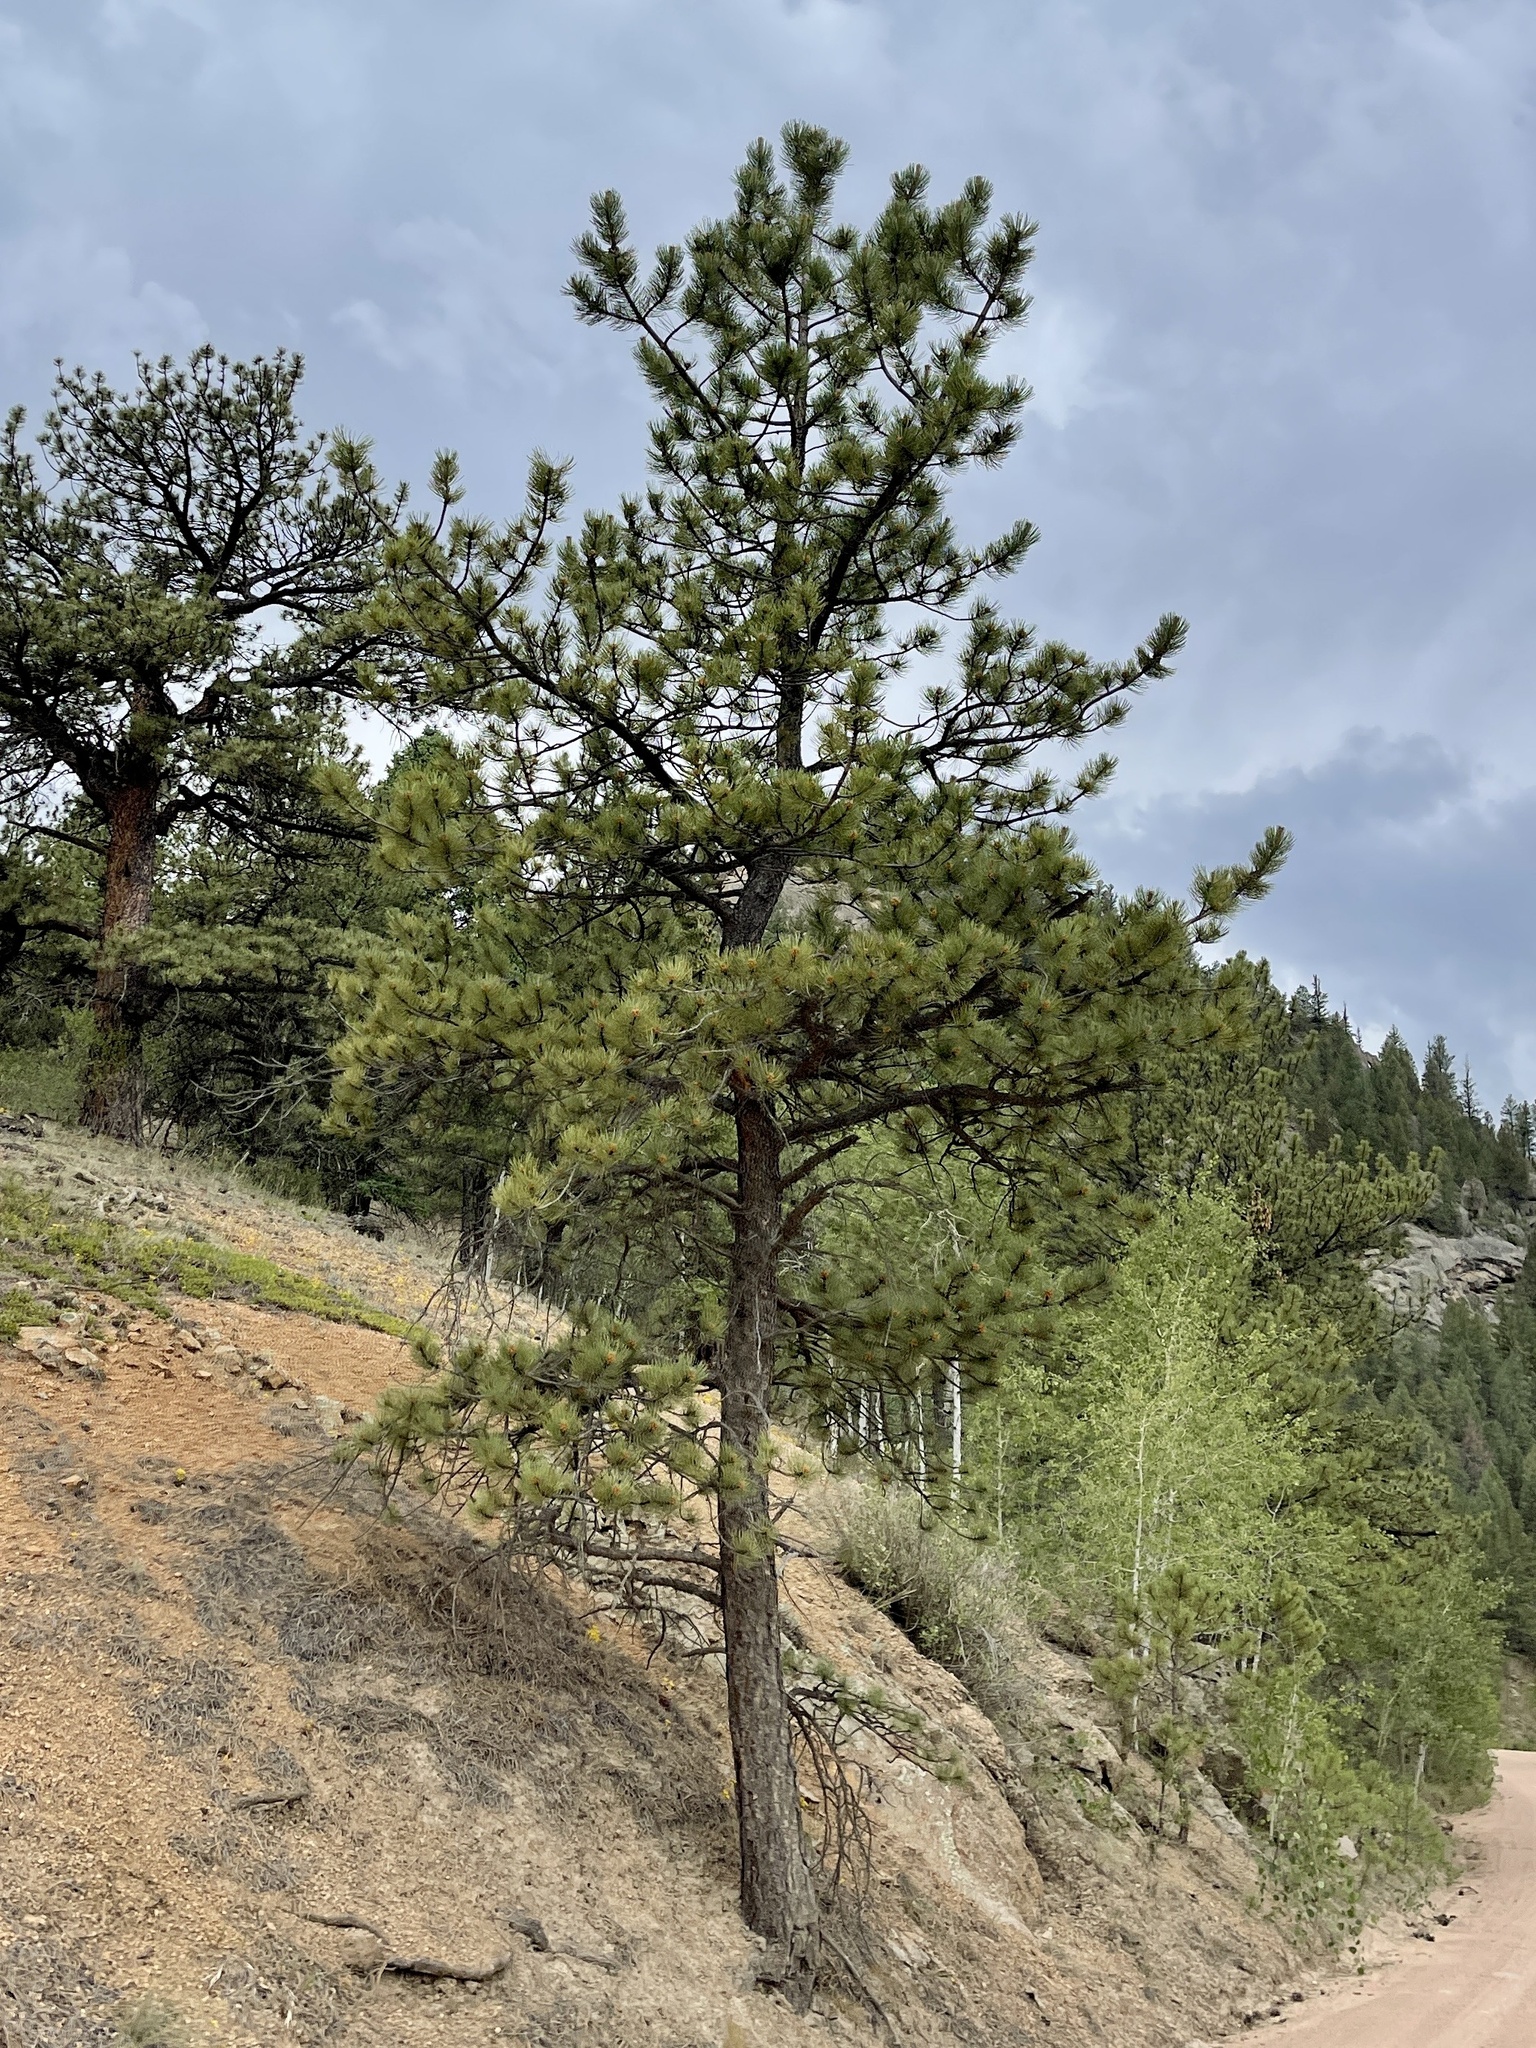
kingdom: Plantae
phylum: Tracheophyta
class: Pinopsida
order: Pinales
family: Pinaceae
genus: Pinus
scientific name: Pinus ponderosa
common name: Western yellow-pine
